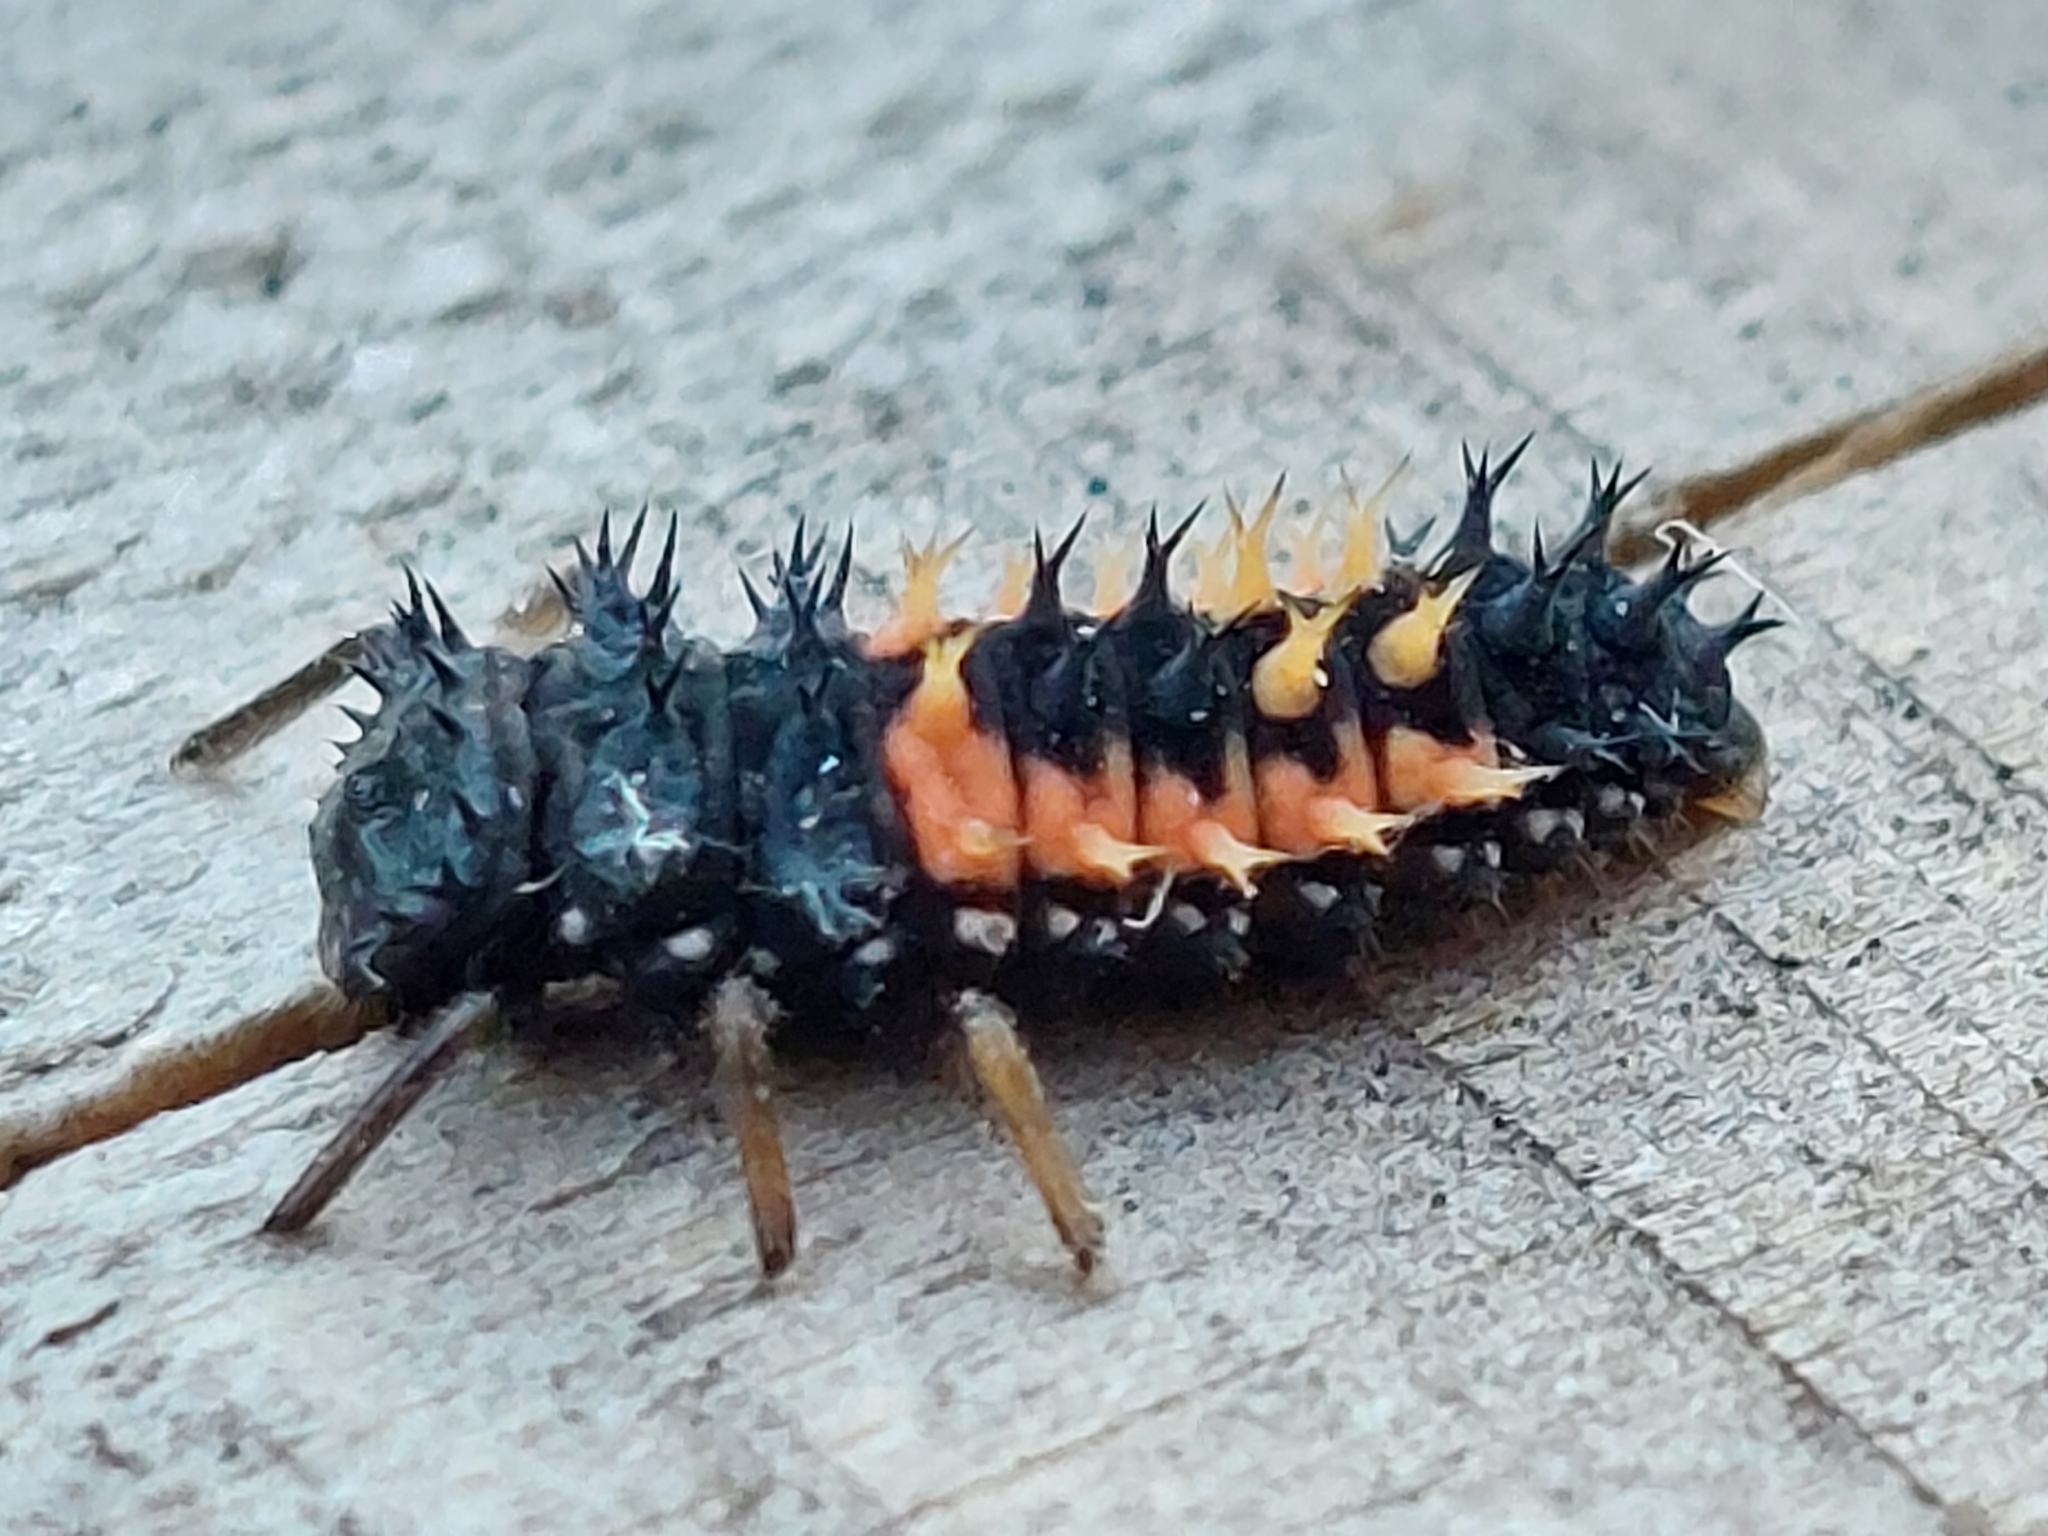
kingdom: Animalia
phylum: Arthropoda
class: Insecta
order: Coleoptera
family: Coccinellidae
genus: Harmonia
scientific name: Harmonia axyridis
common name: Harlequin ladybird
